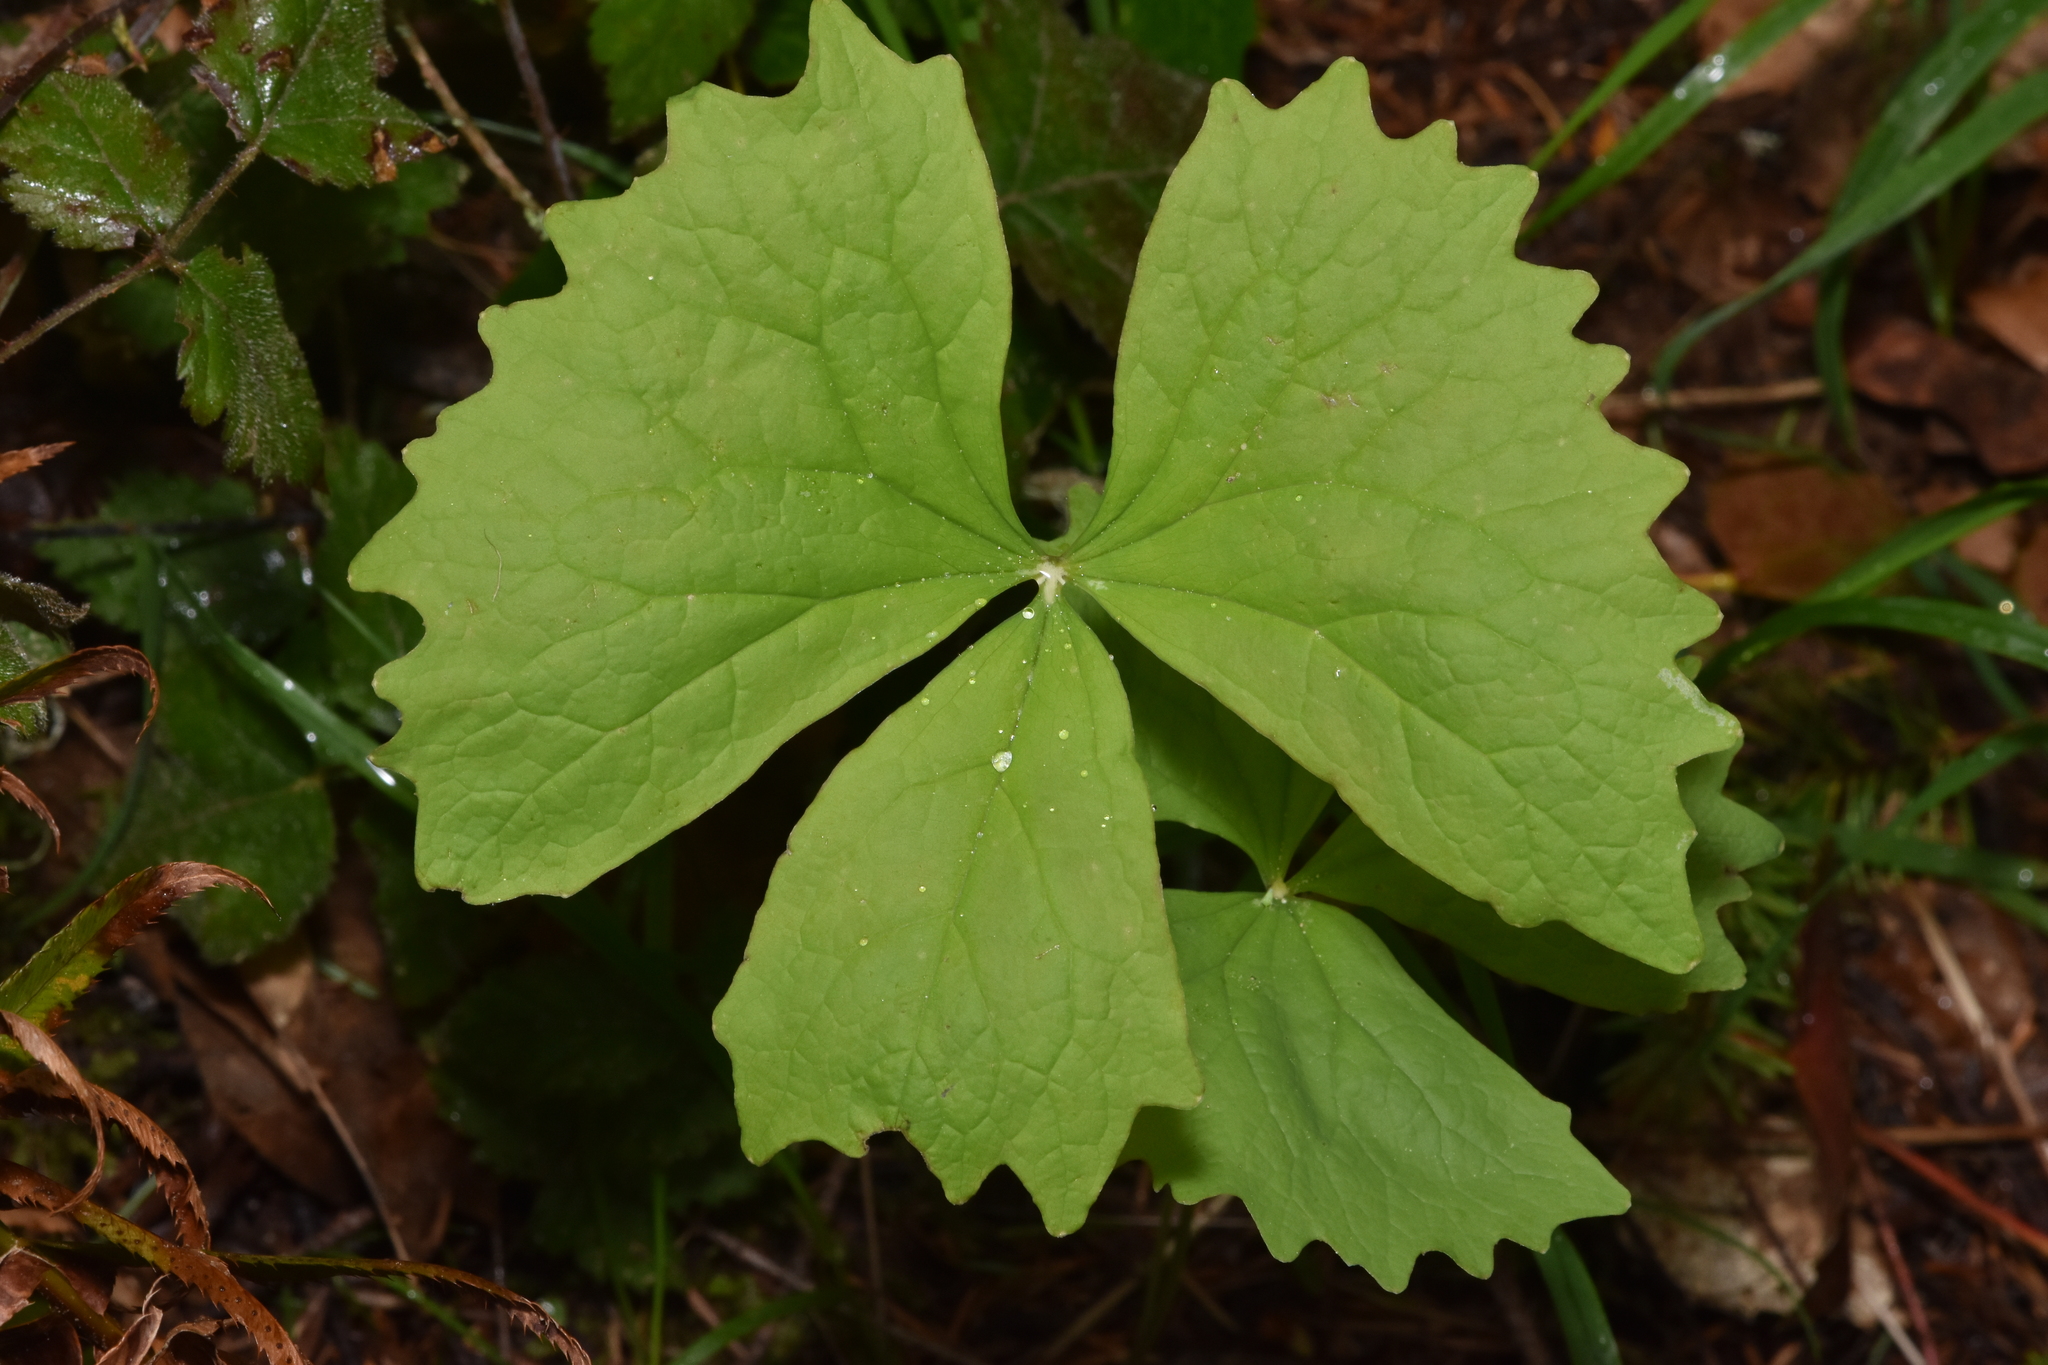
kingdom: Plantae
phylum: Tracheophyta
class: Magnoliopsida
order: Ranunculales
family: Berberidaceae
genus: Achlys
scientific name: Achlys triphylla
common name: Vanilla-leaf
